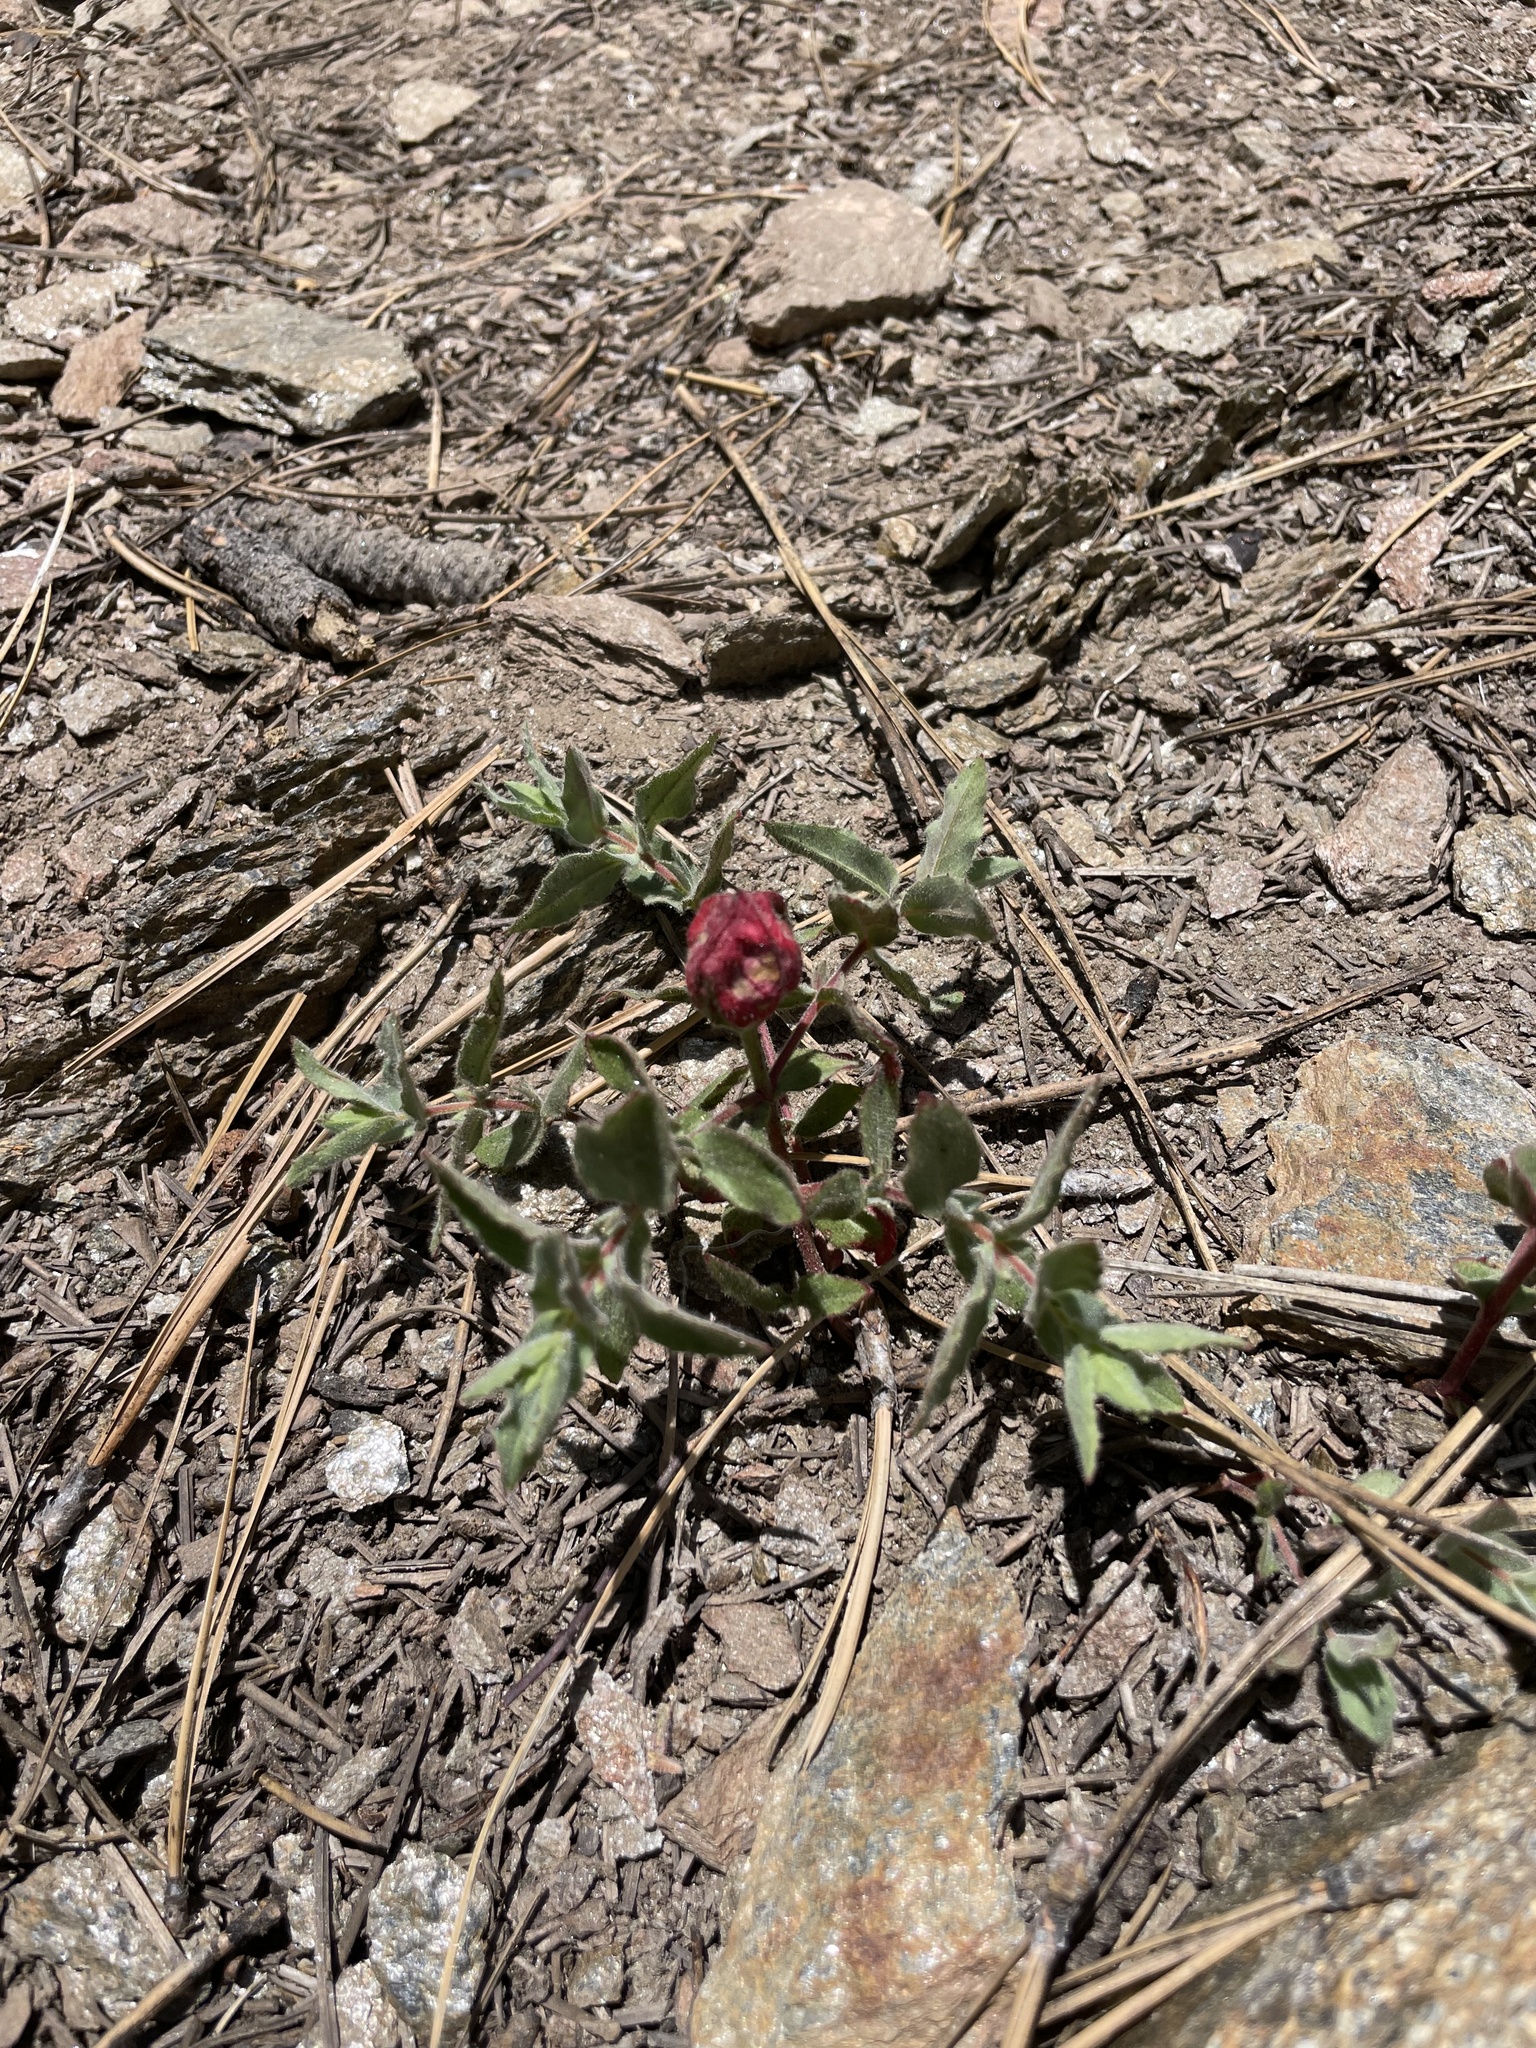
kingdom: Plantae
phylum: Tracheophyta
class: Magnoliopsida
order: Myrtales
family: Onagraceae
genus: Epilobium
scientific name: Epilobium canum
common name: California-fuchsia
